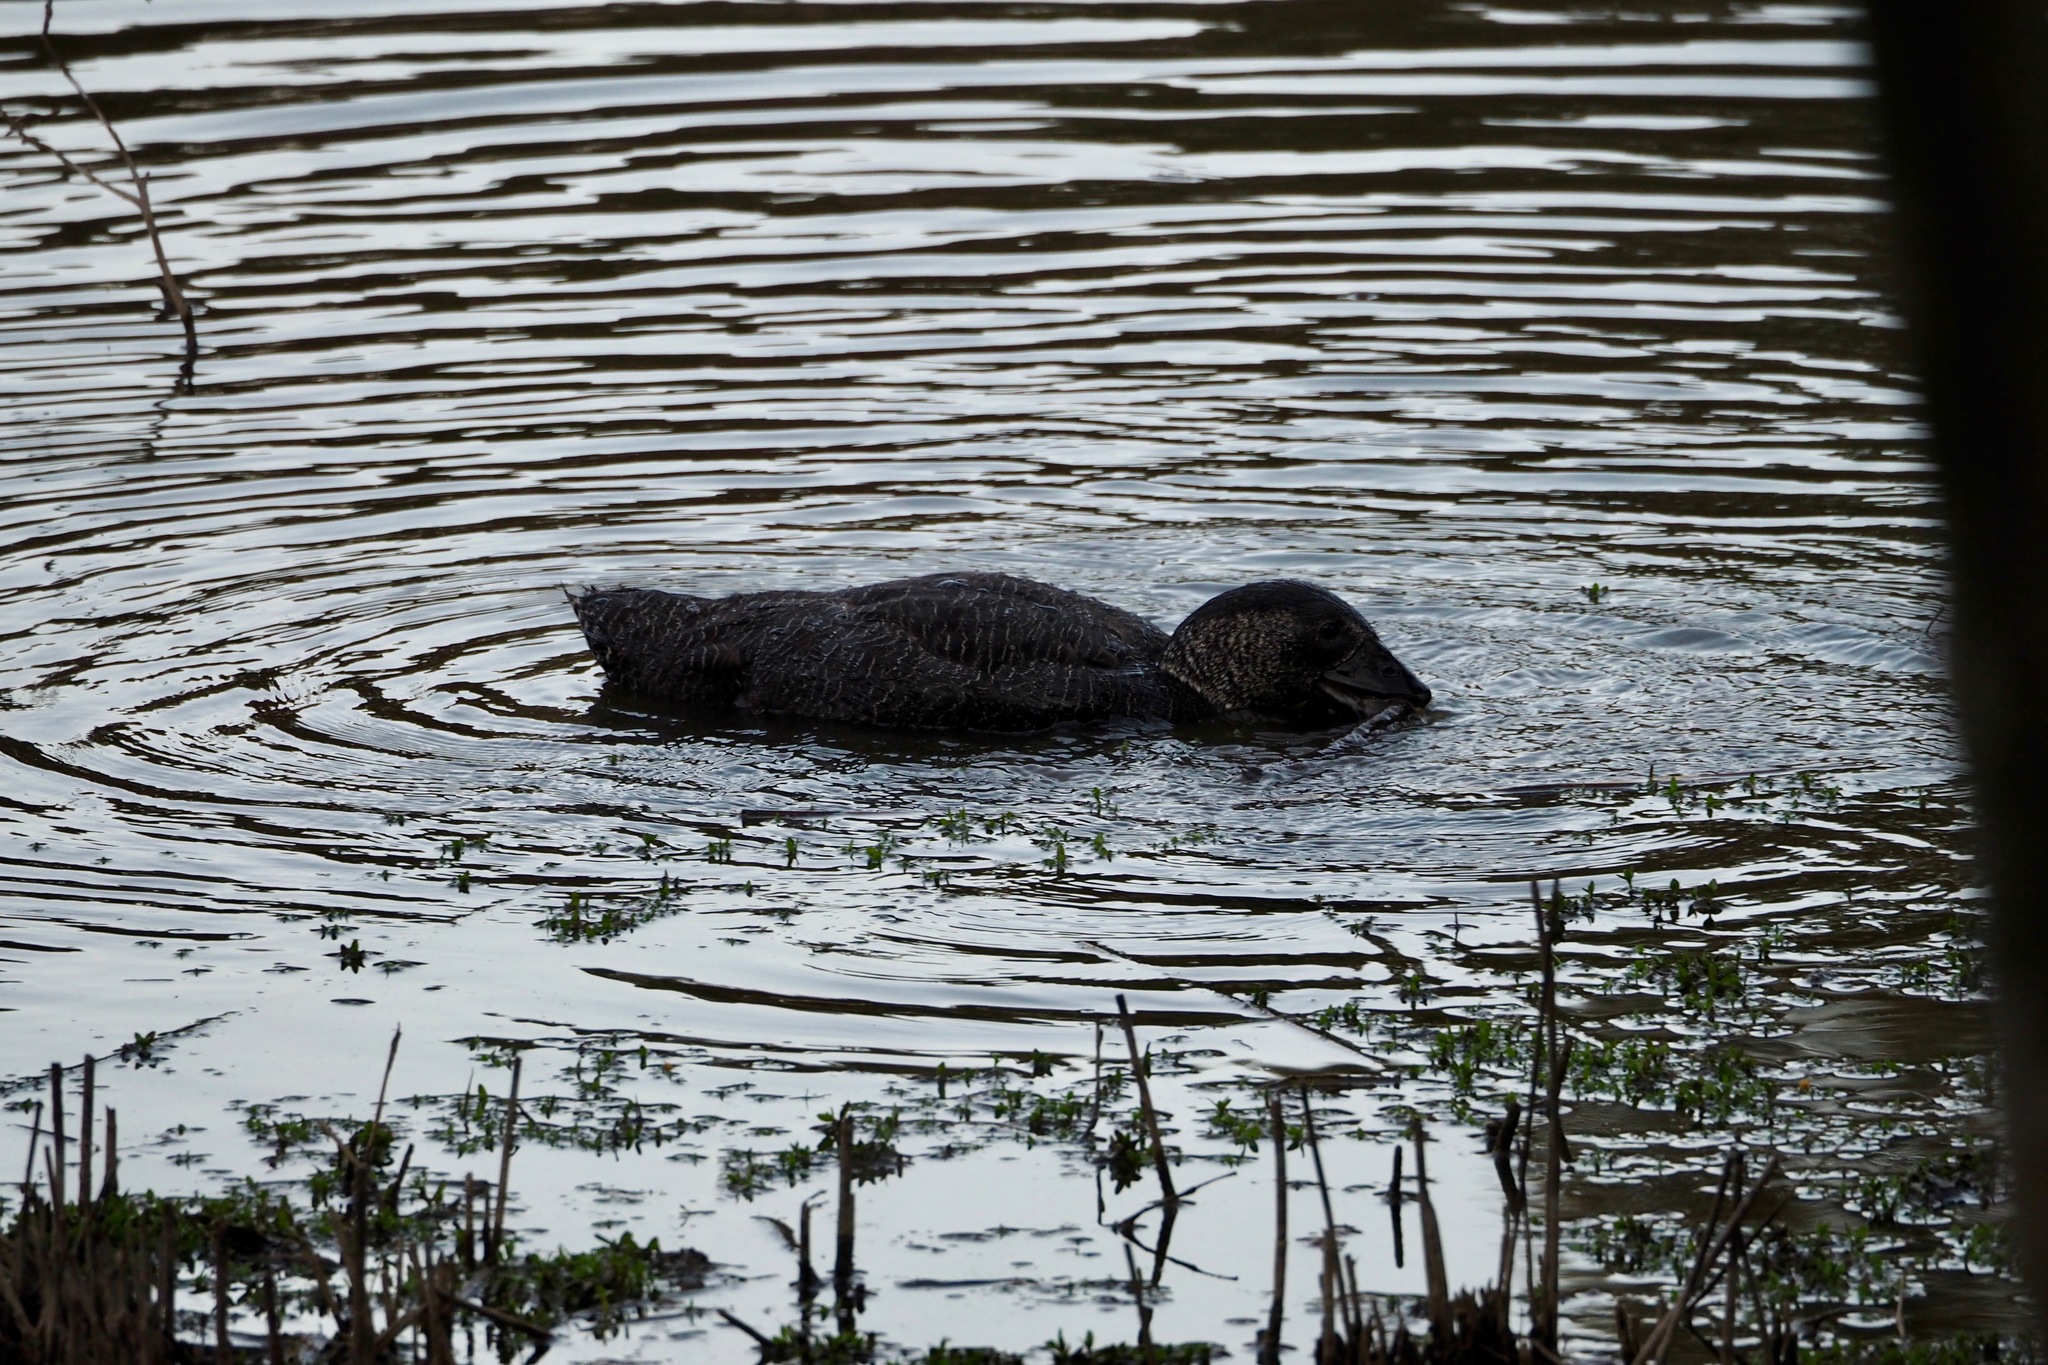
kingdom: Animalia
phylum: Chordata
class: Aves
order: Anseriformes
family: Anatidae
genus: Biziura
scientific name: Biziura lobata
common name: Musk duck
